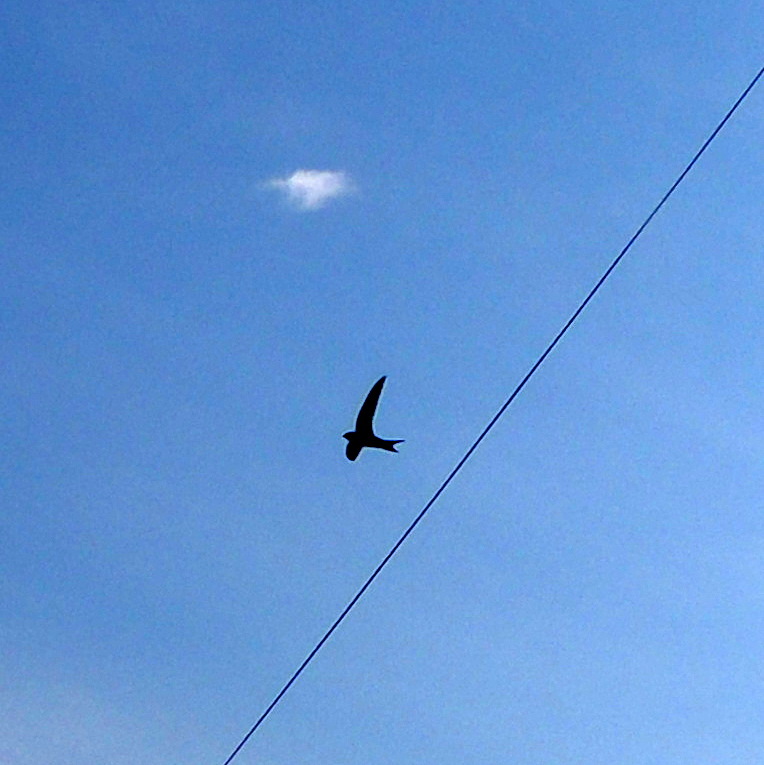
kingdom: Animalia
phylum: Chordata
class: Aves
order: Apodiformes
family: Apodidae
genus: Apus
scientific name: Apus apus
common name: Common swift
